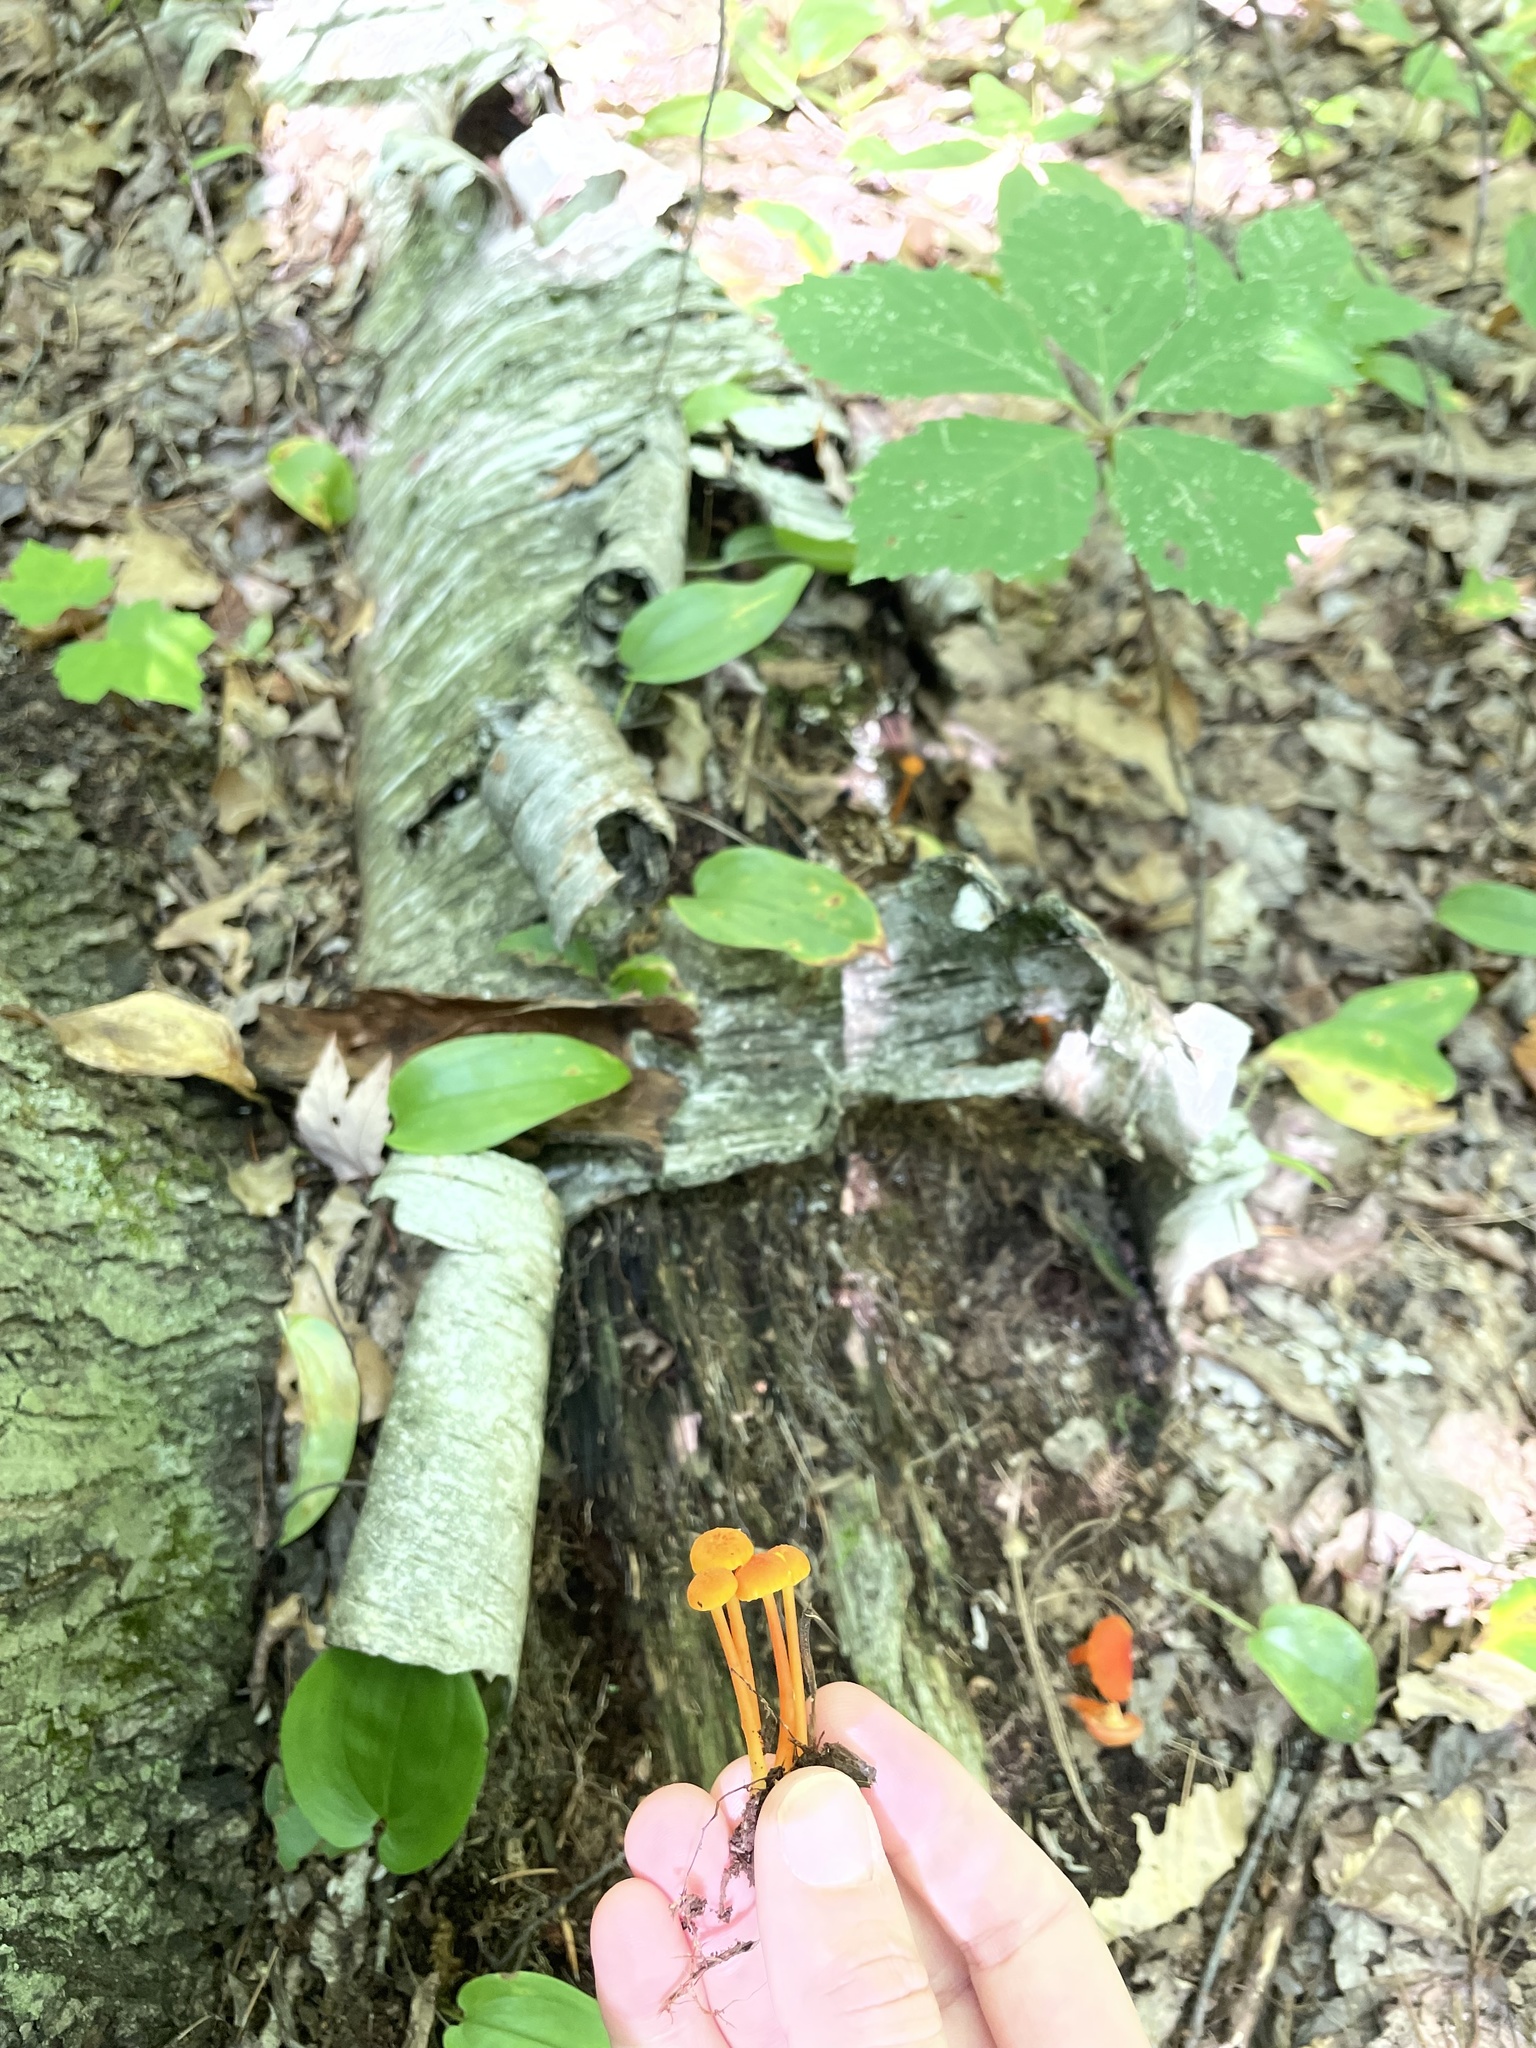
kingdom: Fungi
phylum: Basidiomycota
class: Agaricomycetes
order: Agaricales
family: Hygrophoraceae
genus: Hygrocybe
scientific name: Hygrocybe cantharellus
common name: Goblet waxcap
